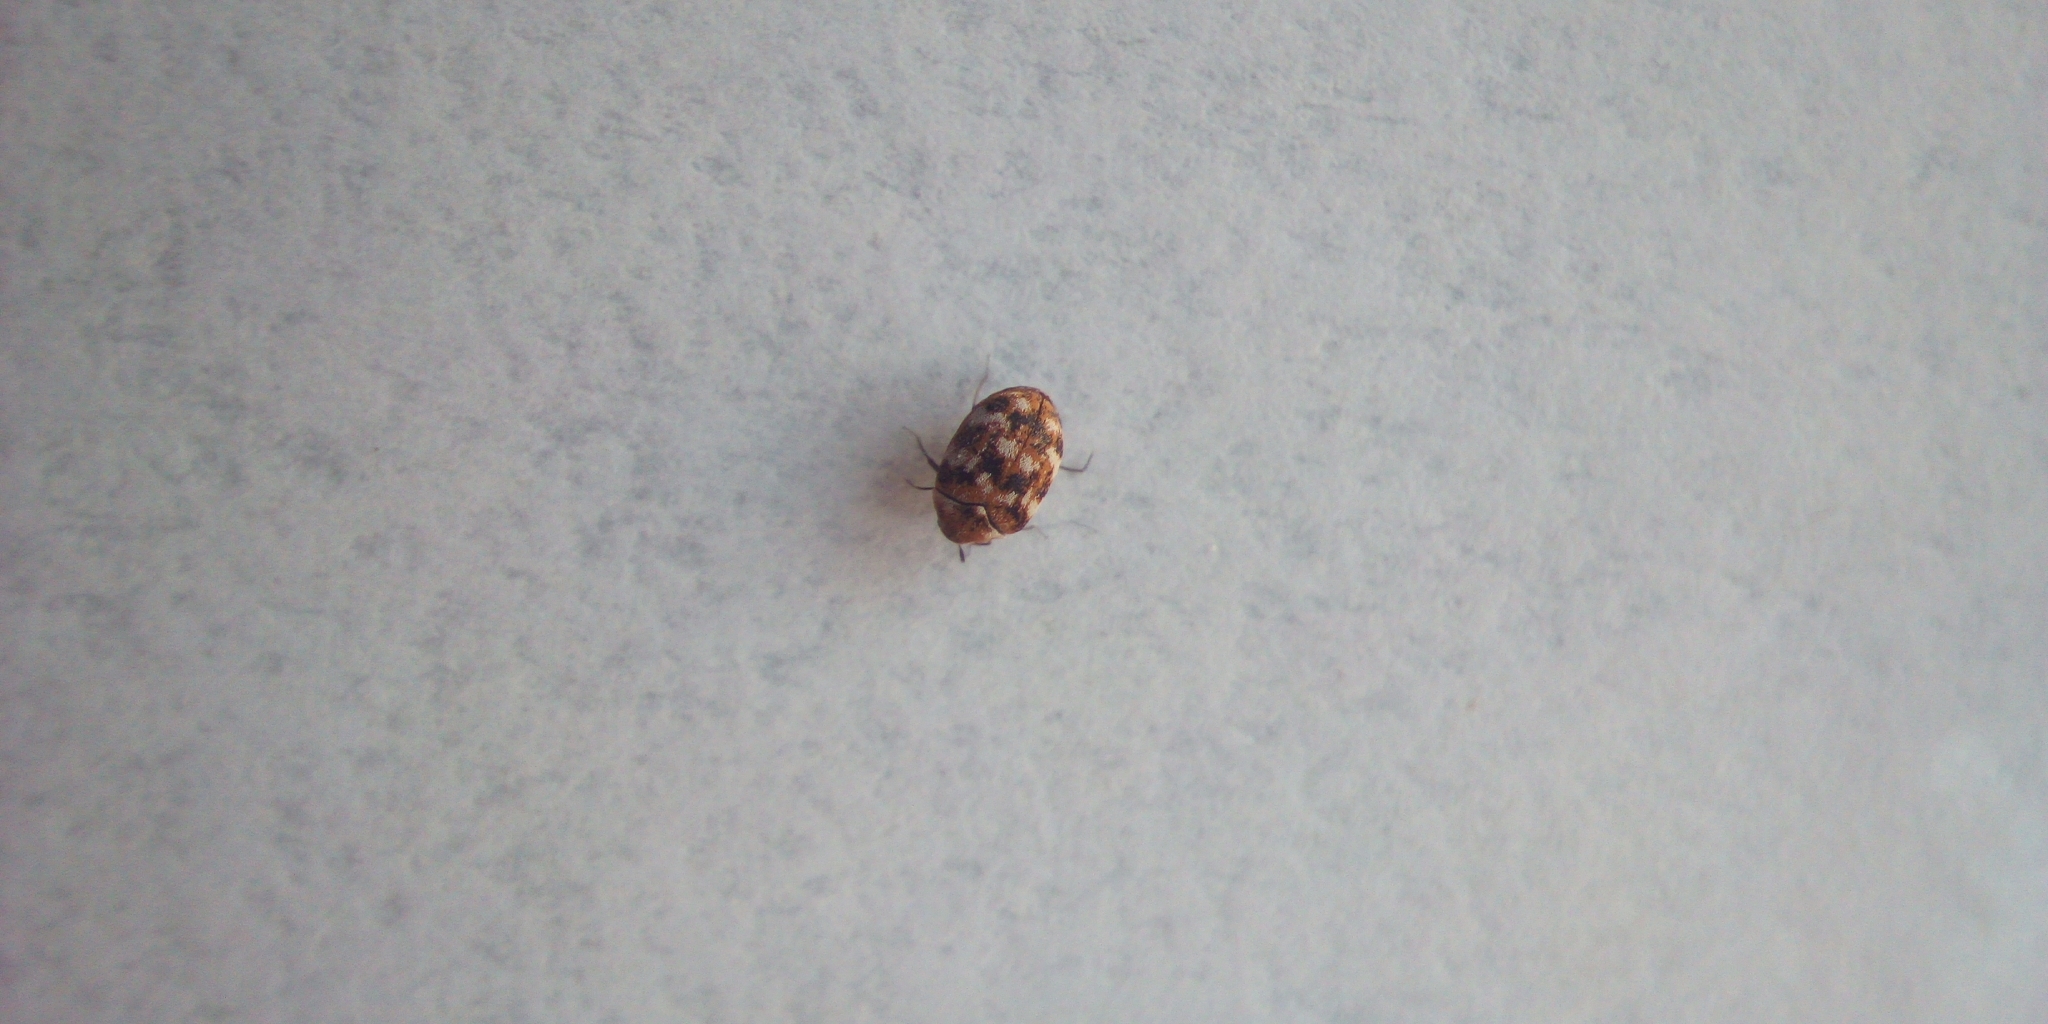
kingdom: Animalia
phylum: Arthropoda
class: Insecta
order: Coleoptera
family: Dermestidae
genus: Anthrenus
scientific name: Anthrenus verbasci
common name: Varied carpet beetle
